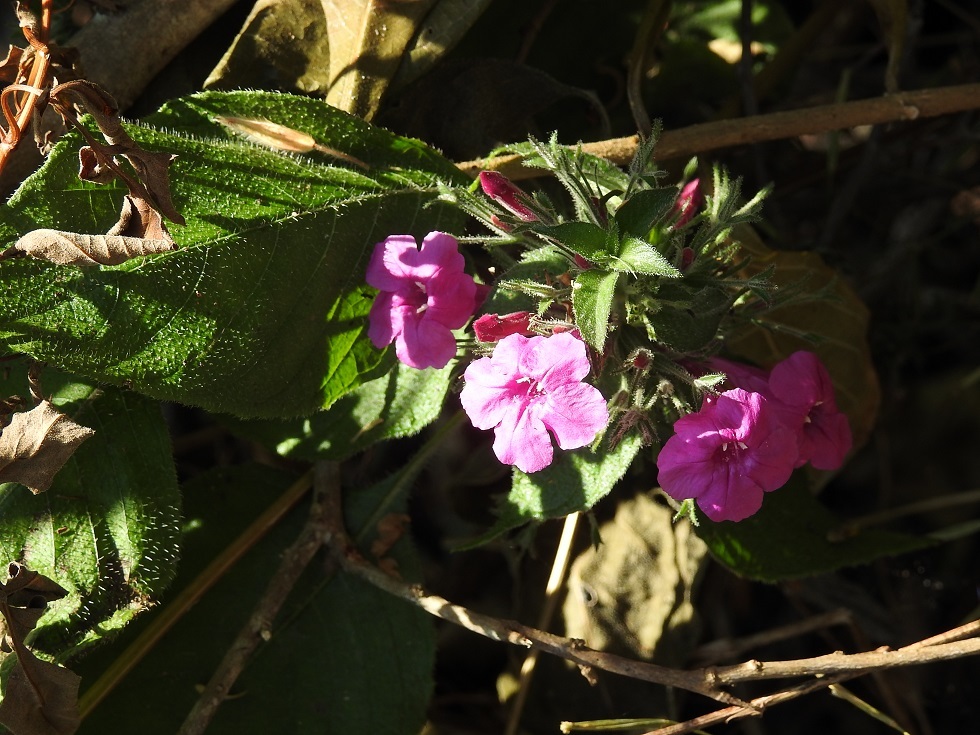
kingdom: Plantae
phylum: Tracheophyta
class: Magnoliopsida
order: Lamiales
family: Acanthaceae
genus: Ruellia
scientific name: Ruellia inundata
